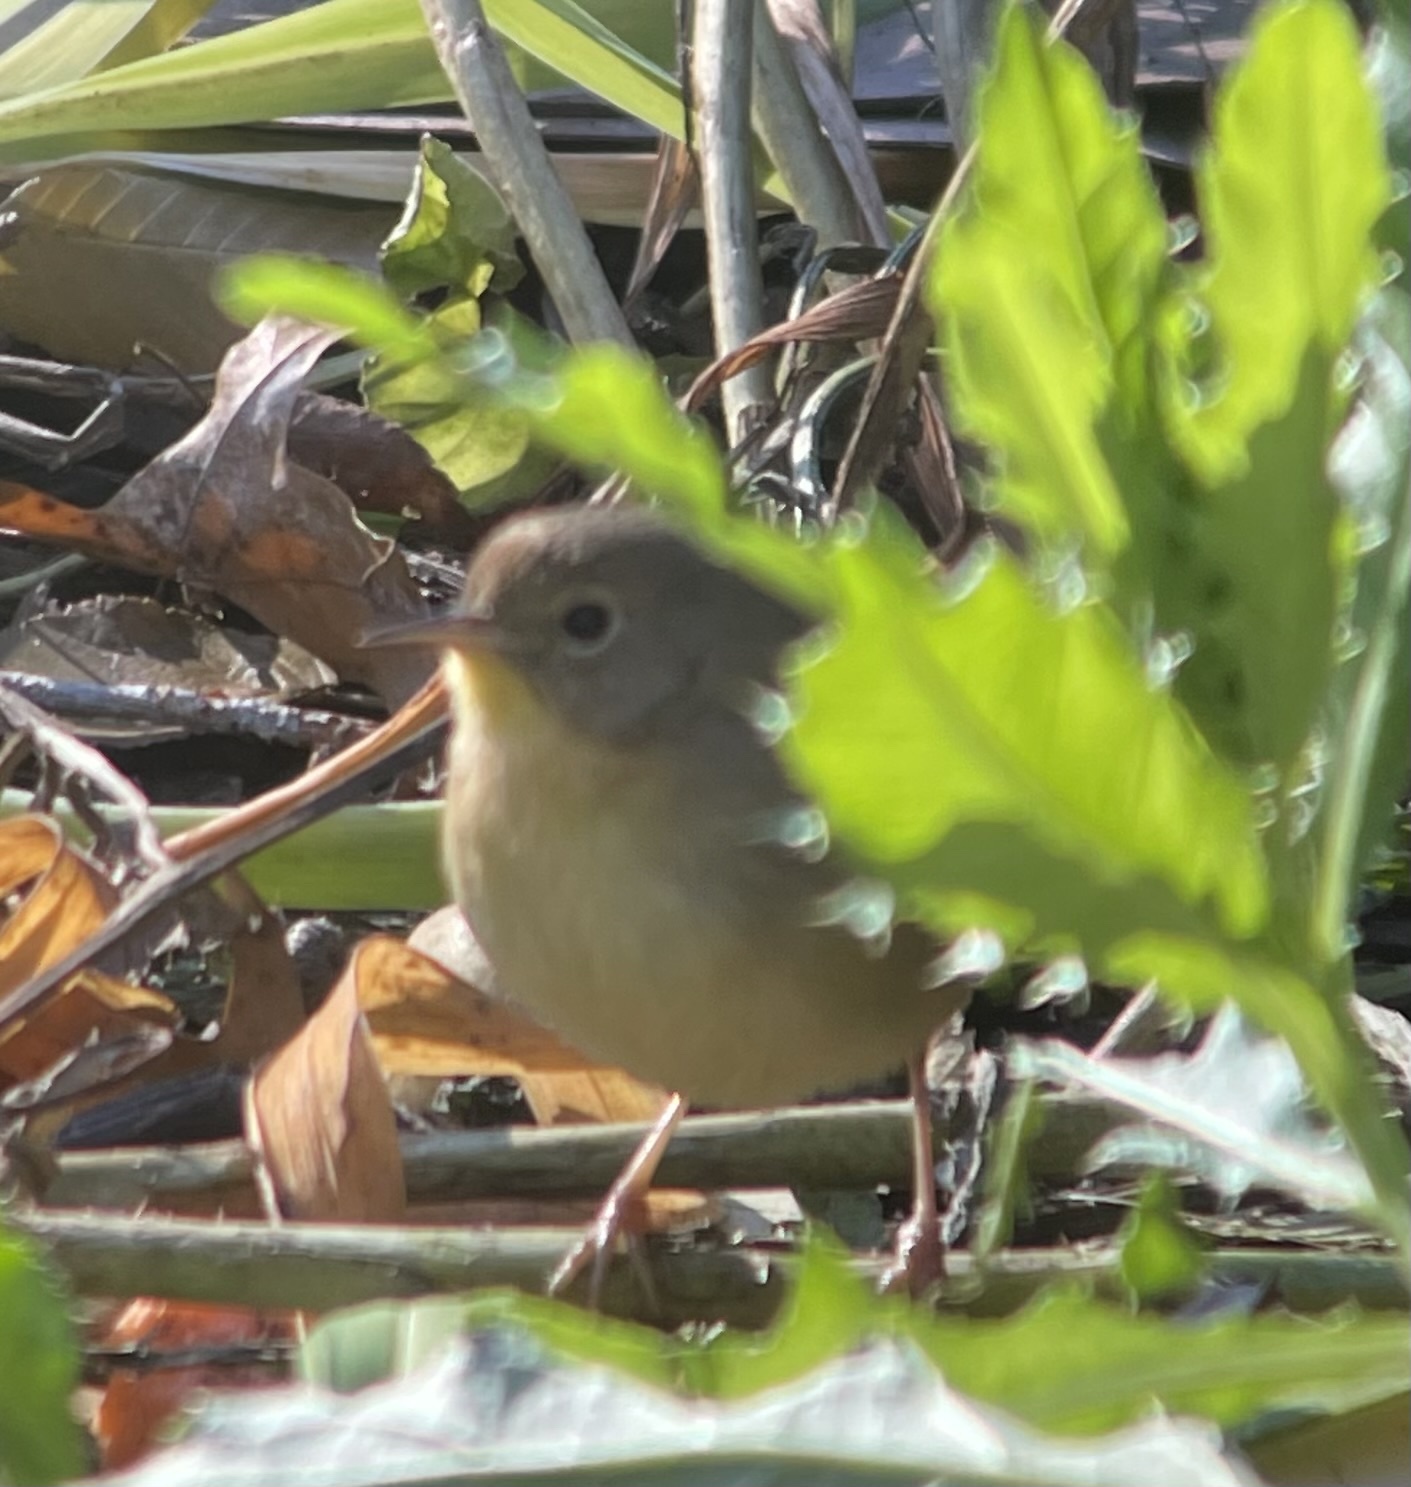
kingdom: Animalia
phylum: Chordata
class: Aves
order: Passeriformes
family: Parulidae
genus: Geothlypis
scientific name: Geothlypis trichas
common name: Common yellowthroat
